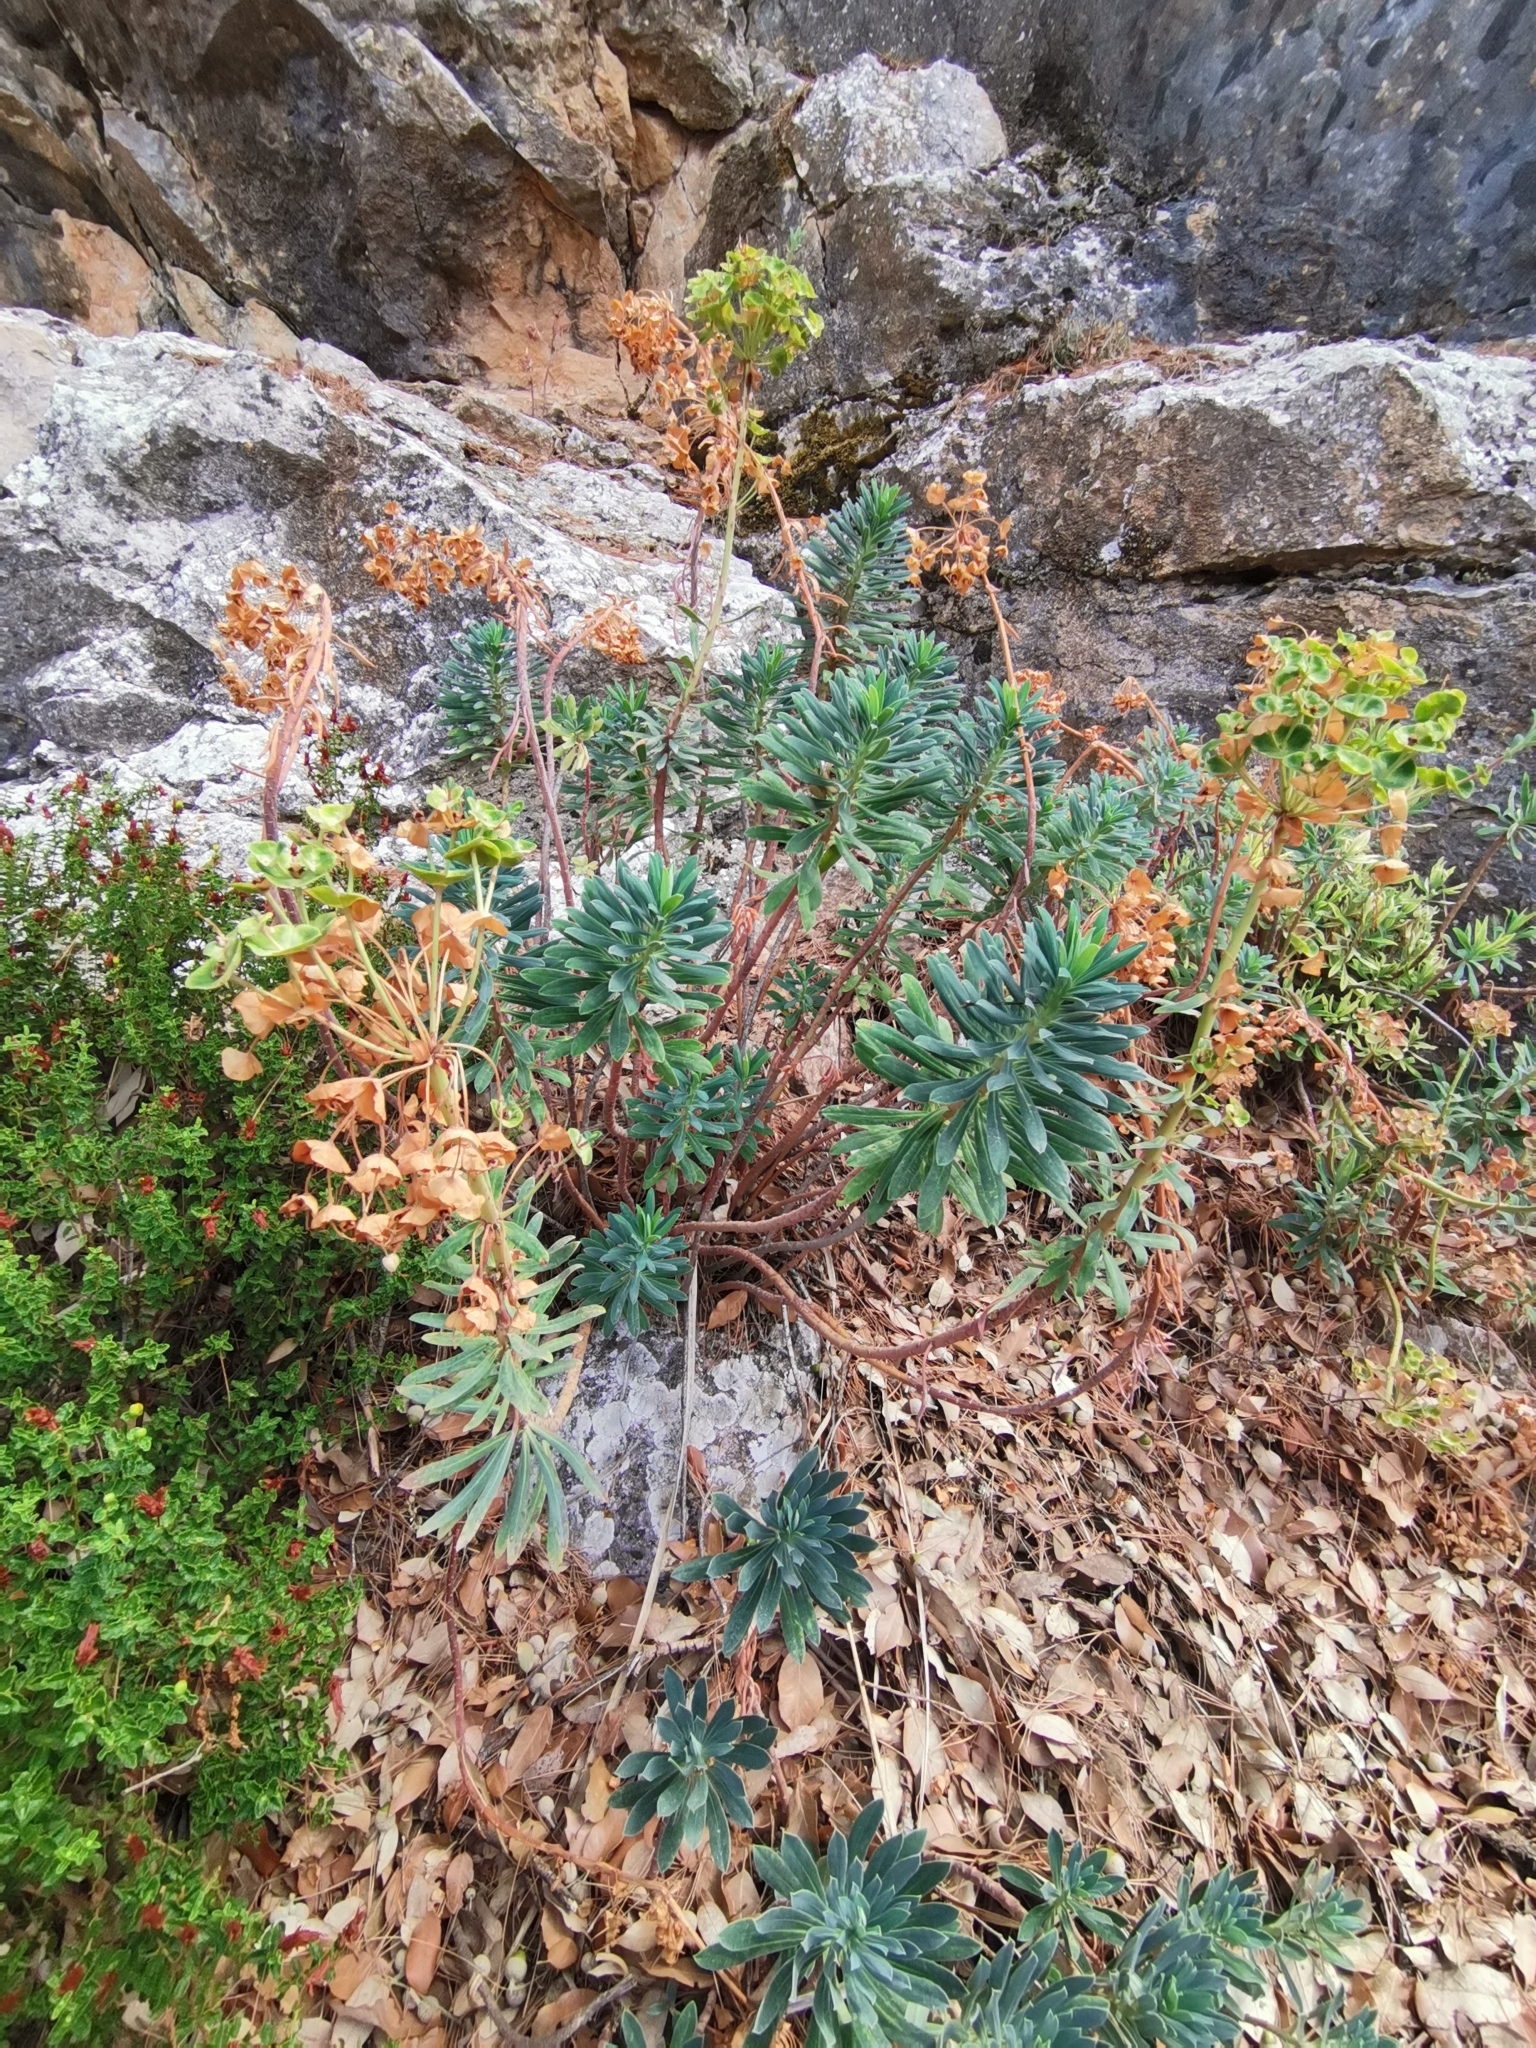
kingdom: Plantae
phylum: Tracheophyta
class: Magnoliopsida
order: Malpighiales
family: Euphorbiaceae
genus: Euphorbia
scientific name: Euphorbia characias
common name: Mediterranean spurge
